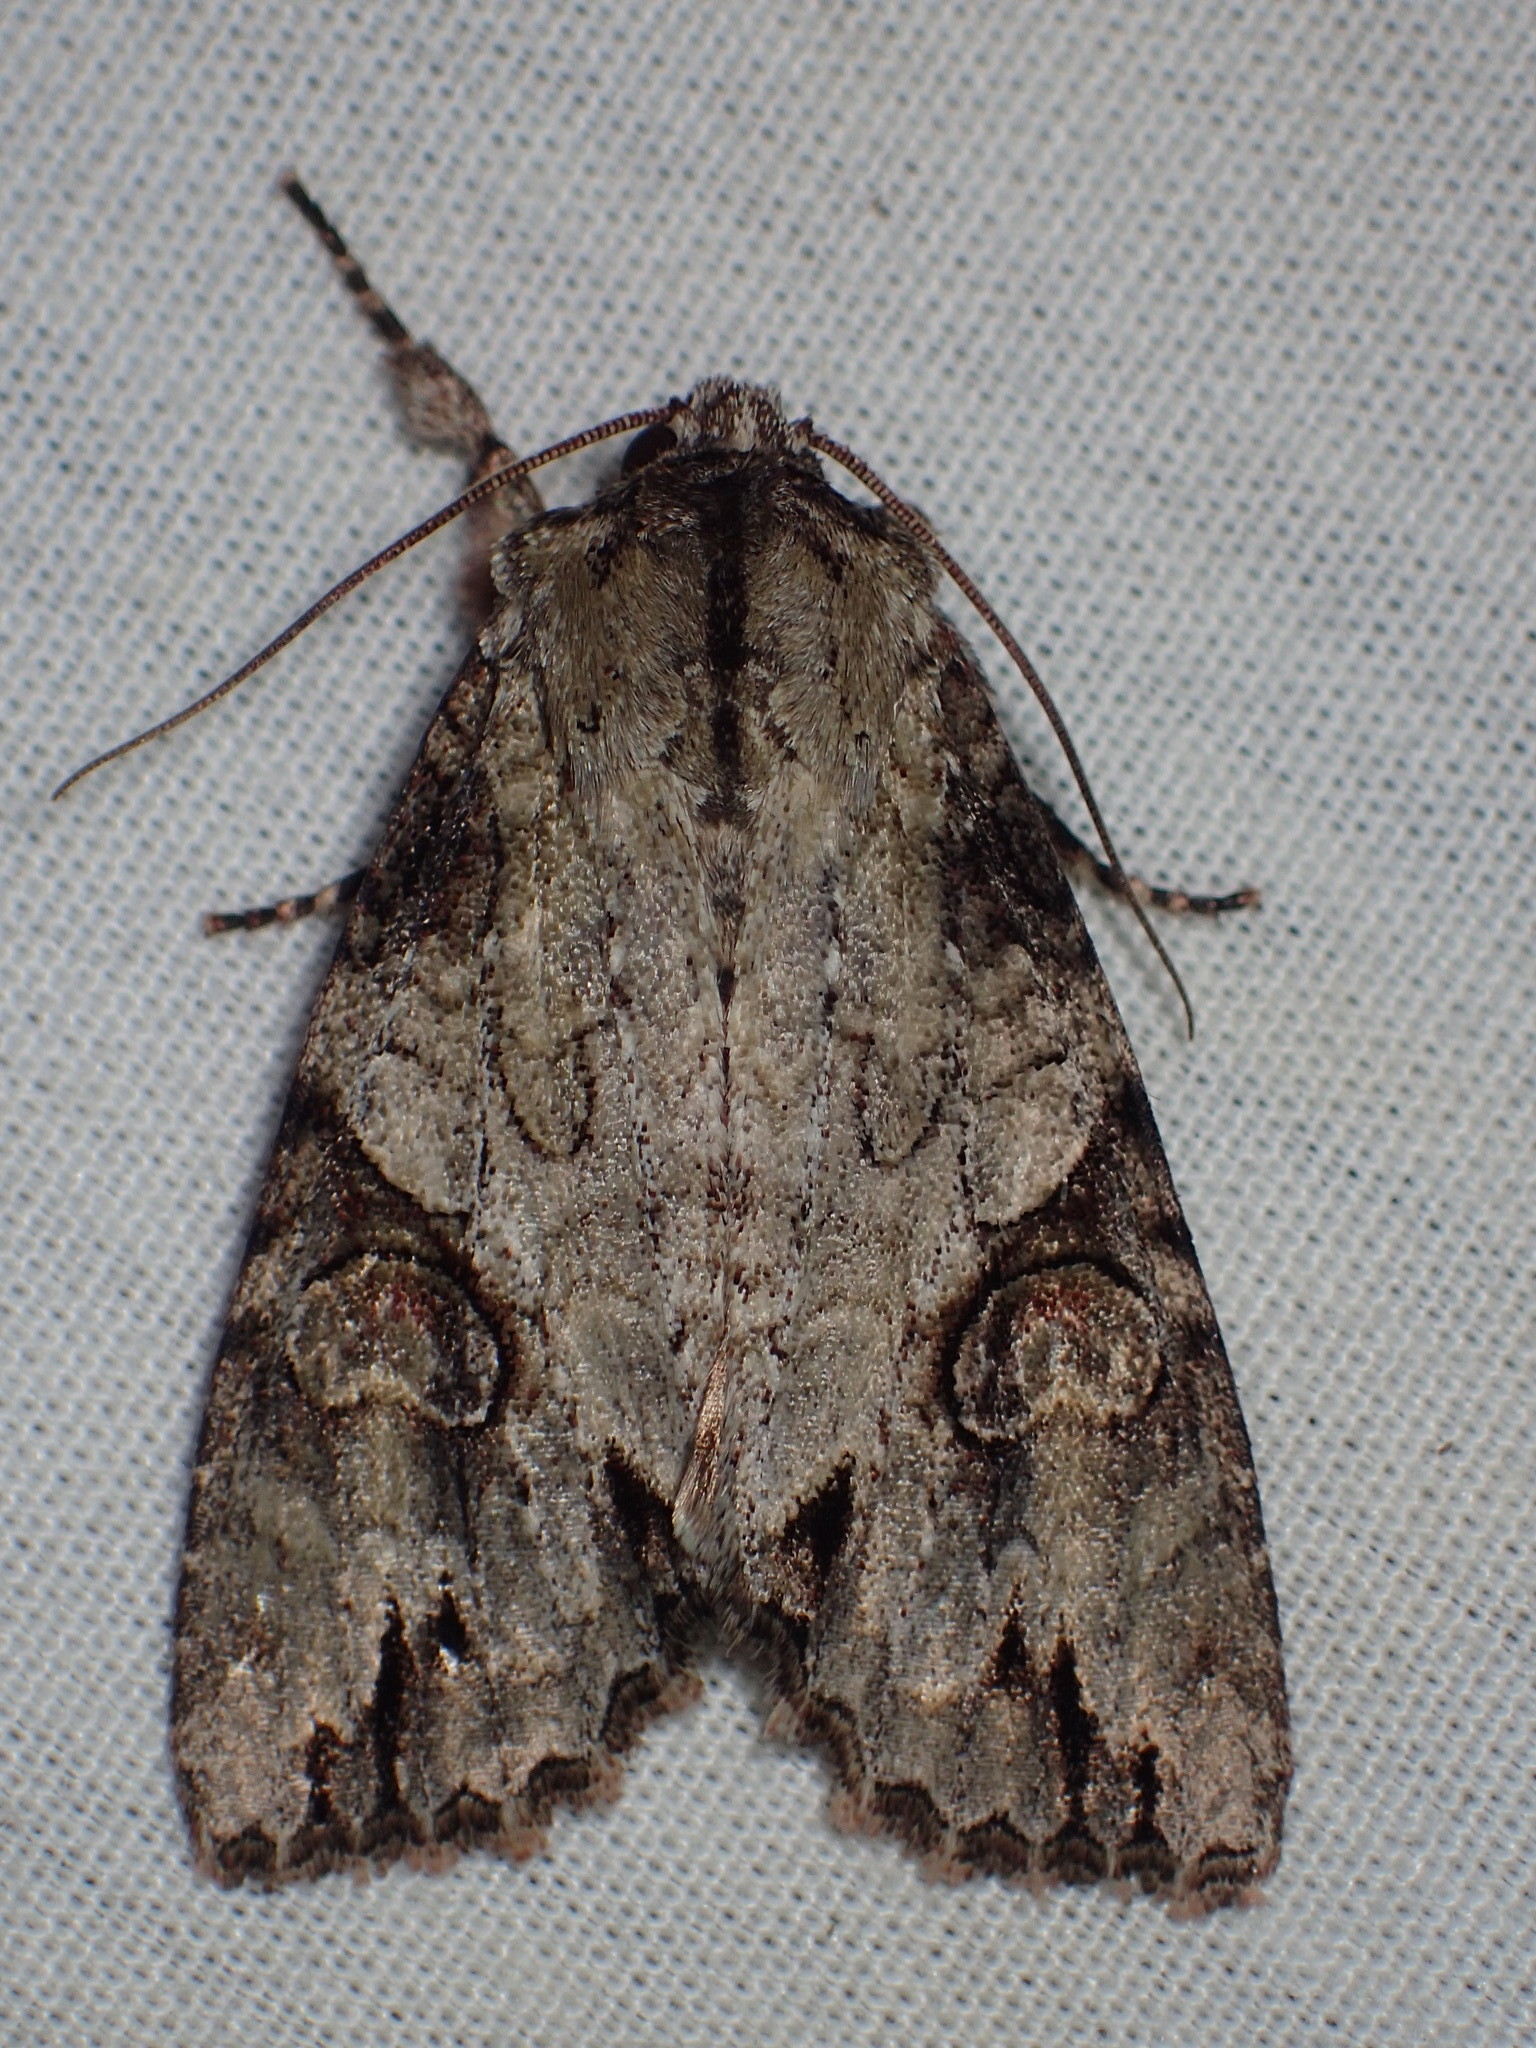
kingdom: Animalia
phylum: Arthropoda
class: Insecta
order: Lepidoptera
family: Noctuidae
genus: Achatia
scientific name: Achatia latex
